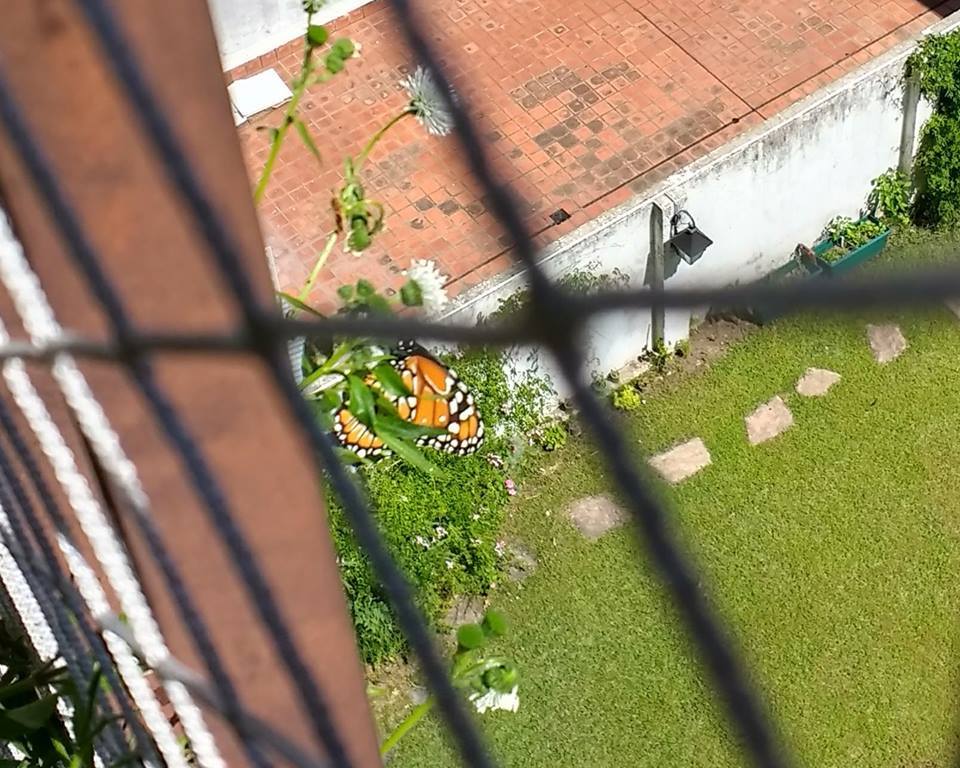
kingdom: Animalia
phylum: Arthropoda
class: Insecta
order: Lepidoptera
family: Nymphalidae
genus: Danaus
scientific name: Danaus erippus
